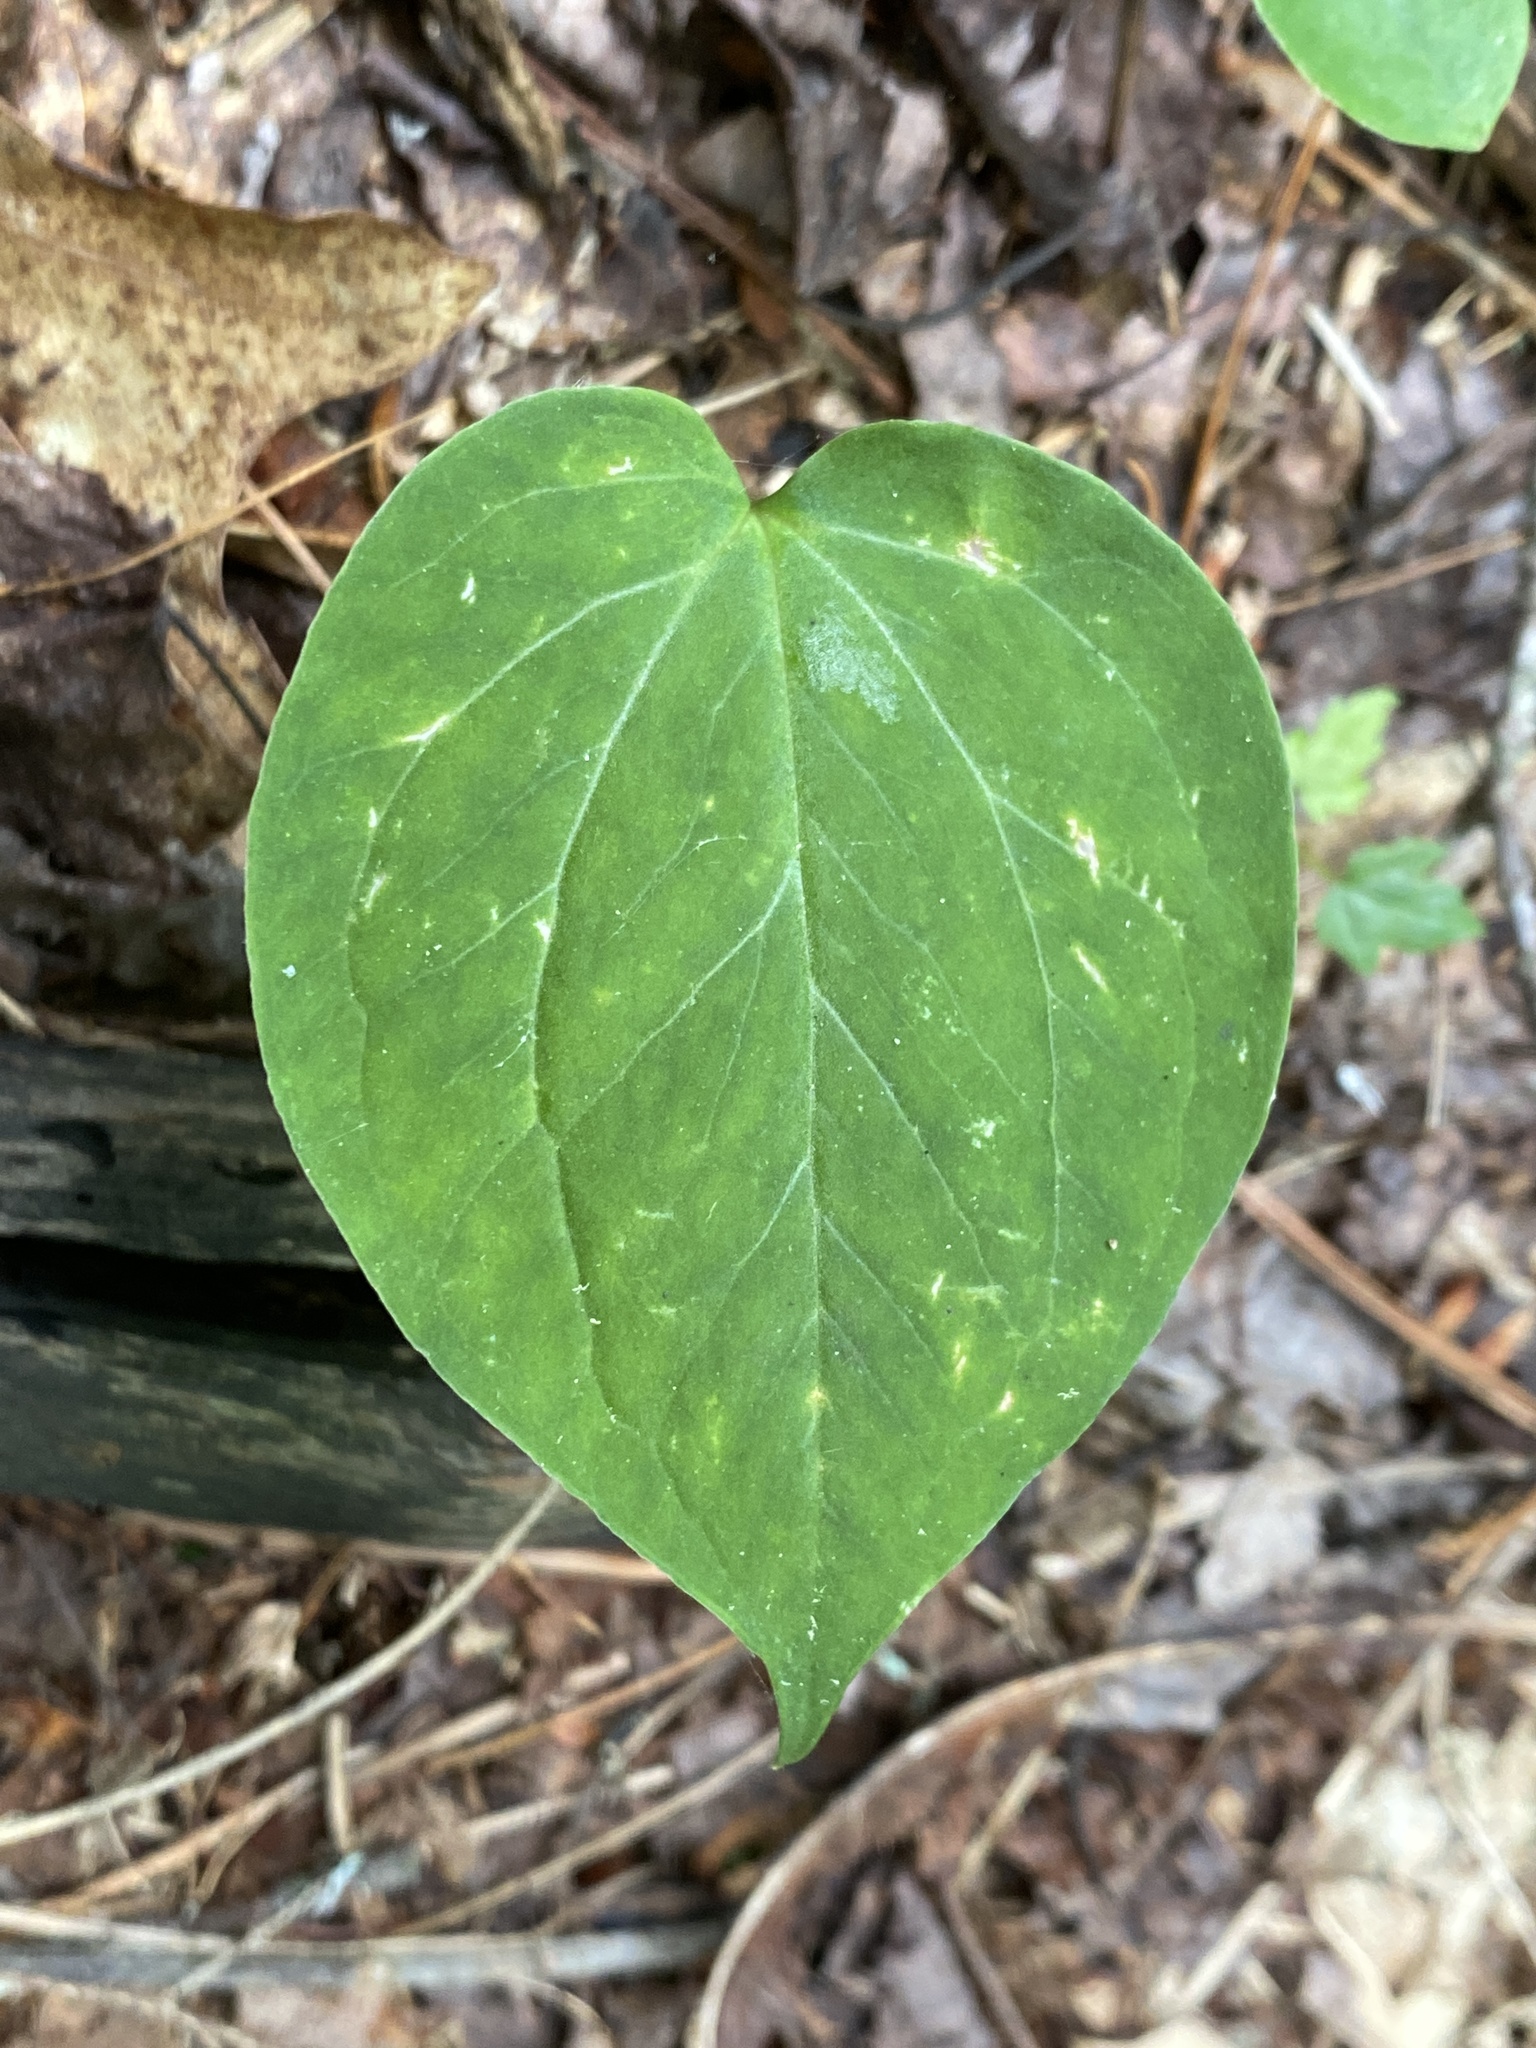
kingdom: Plantae
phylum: Tracheophyta
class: Liliopsida
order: Liliales
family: Melanthiaceae
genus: Trillium
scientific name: Trillium undulatum
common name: Paint trillium
